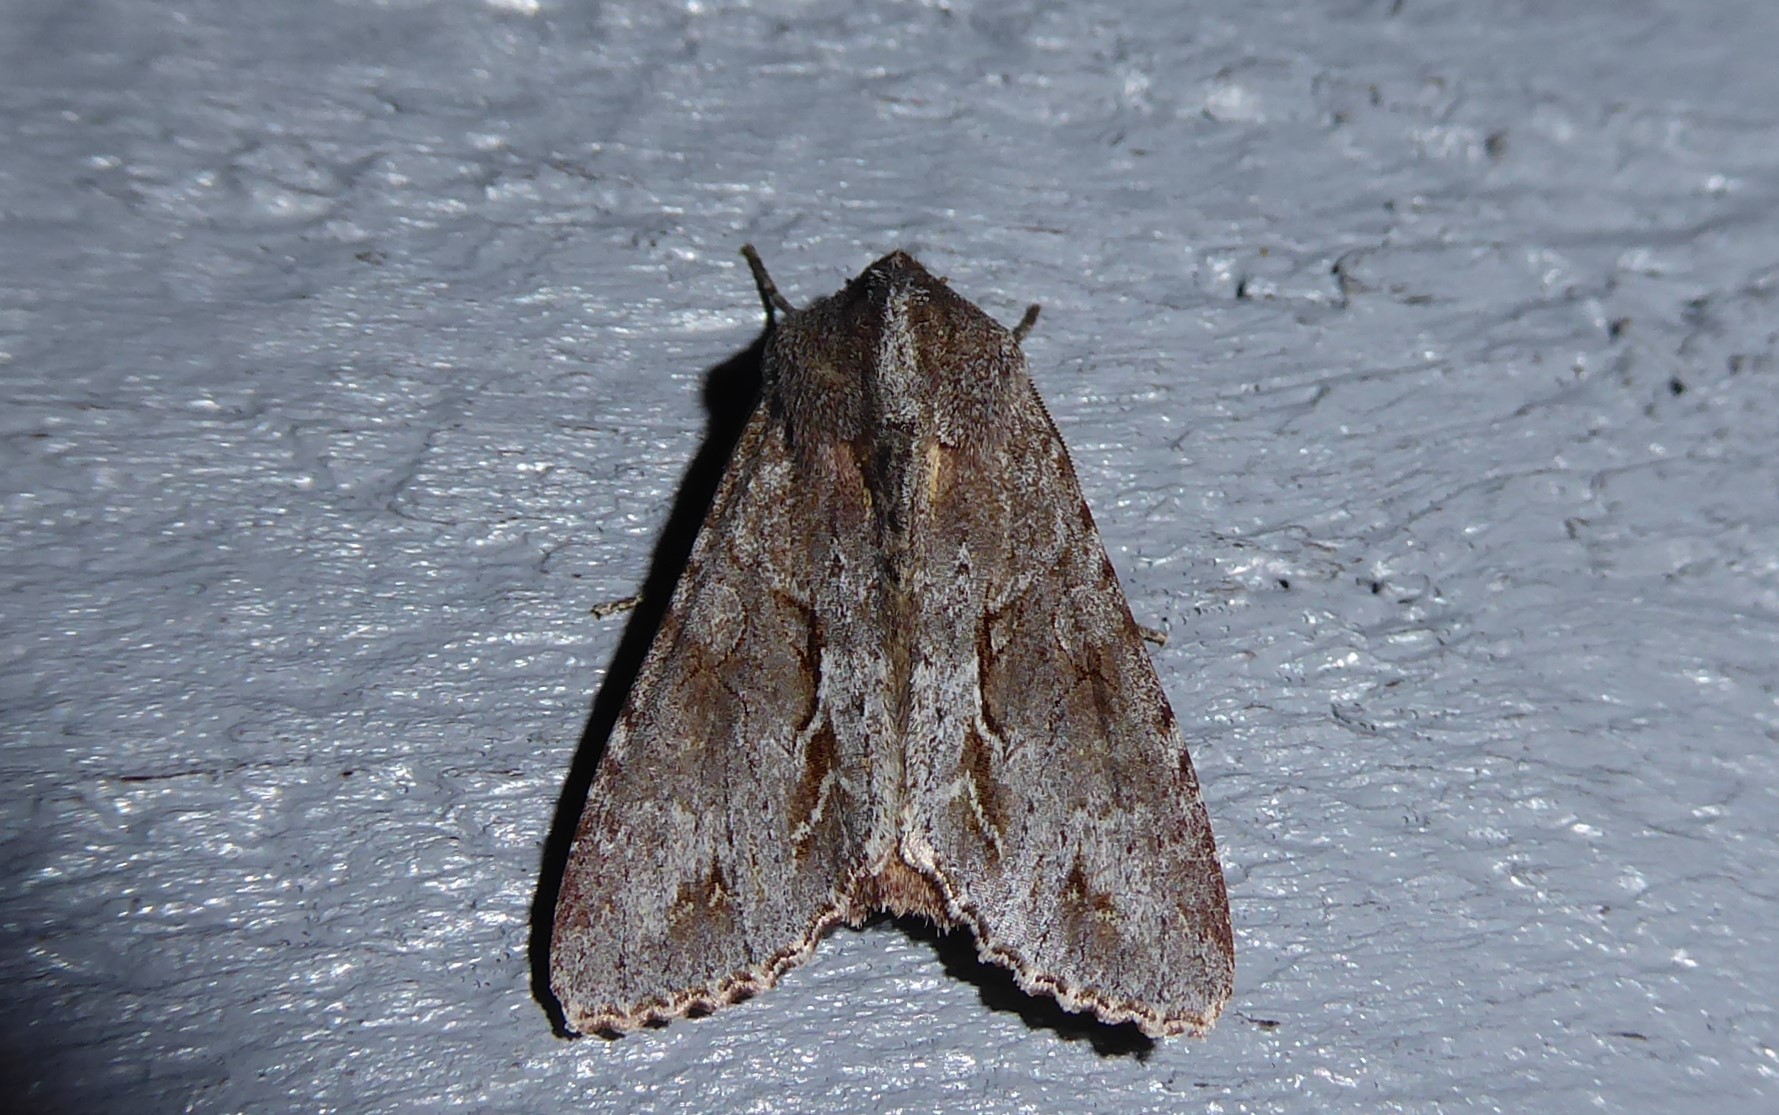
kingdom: Animalia
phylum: Arthropoda
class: Insecta
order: Lepidoptera
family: Noctuidae
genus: Ichneutica
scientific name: Ichneutica
